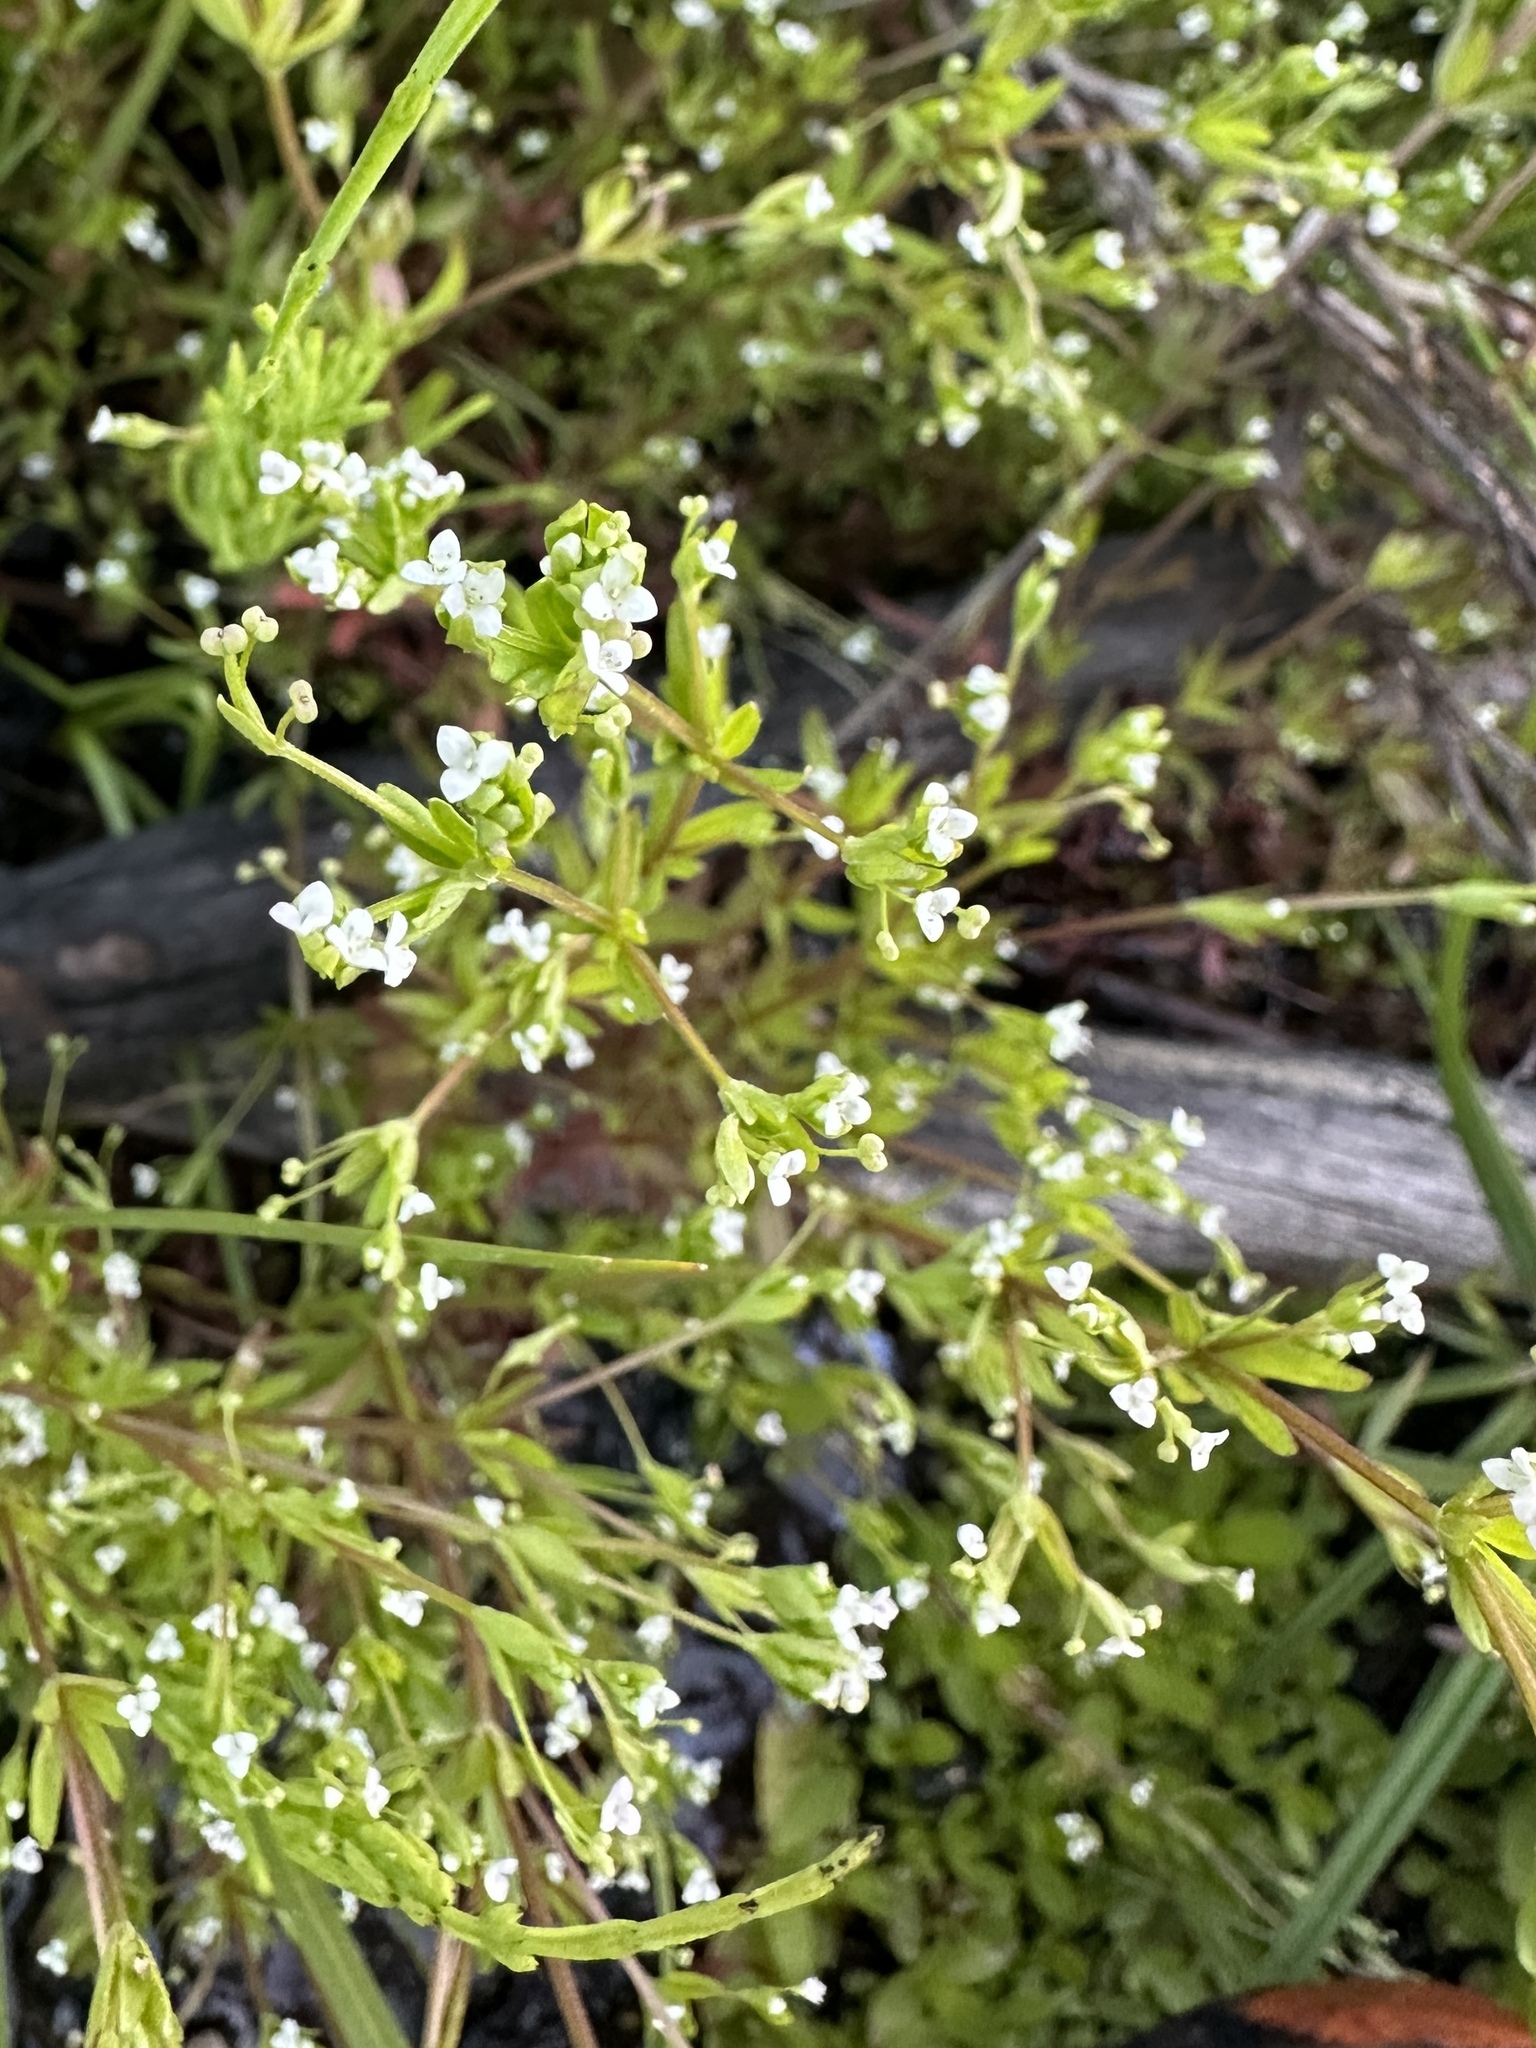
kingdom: Plantae
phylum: Tracheophyta
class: Magnoliopsida
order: Gentianales
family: Rubiaceae
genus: Galium
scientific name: Galium trifidum
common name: Small bedstraw
